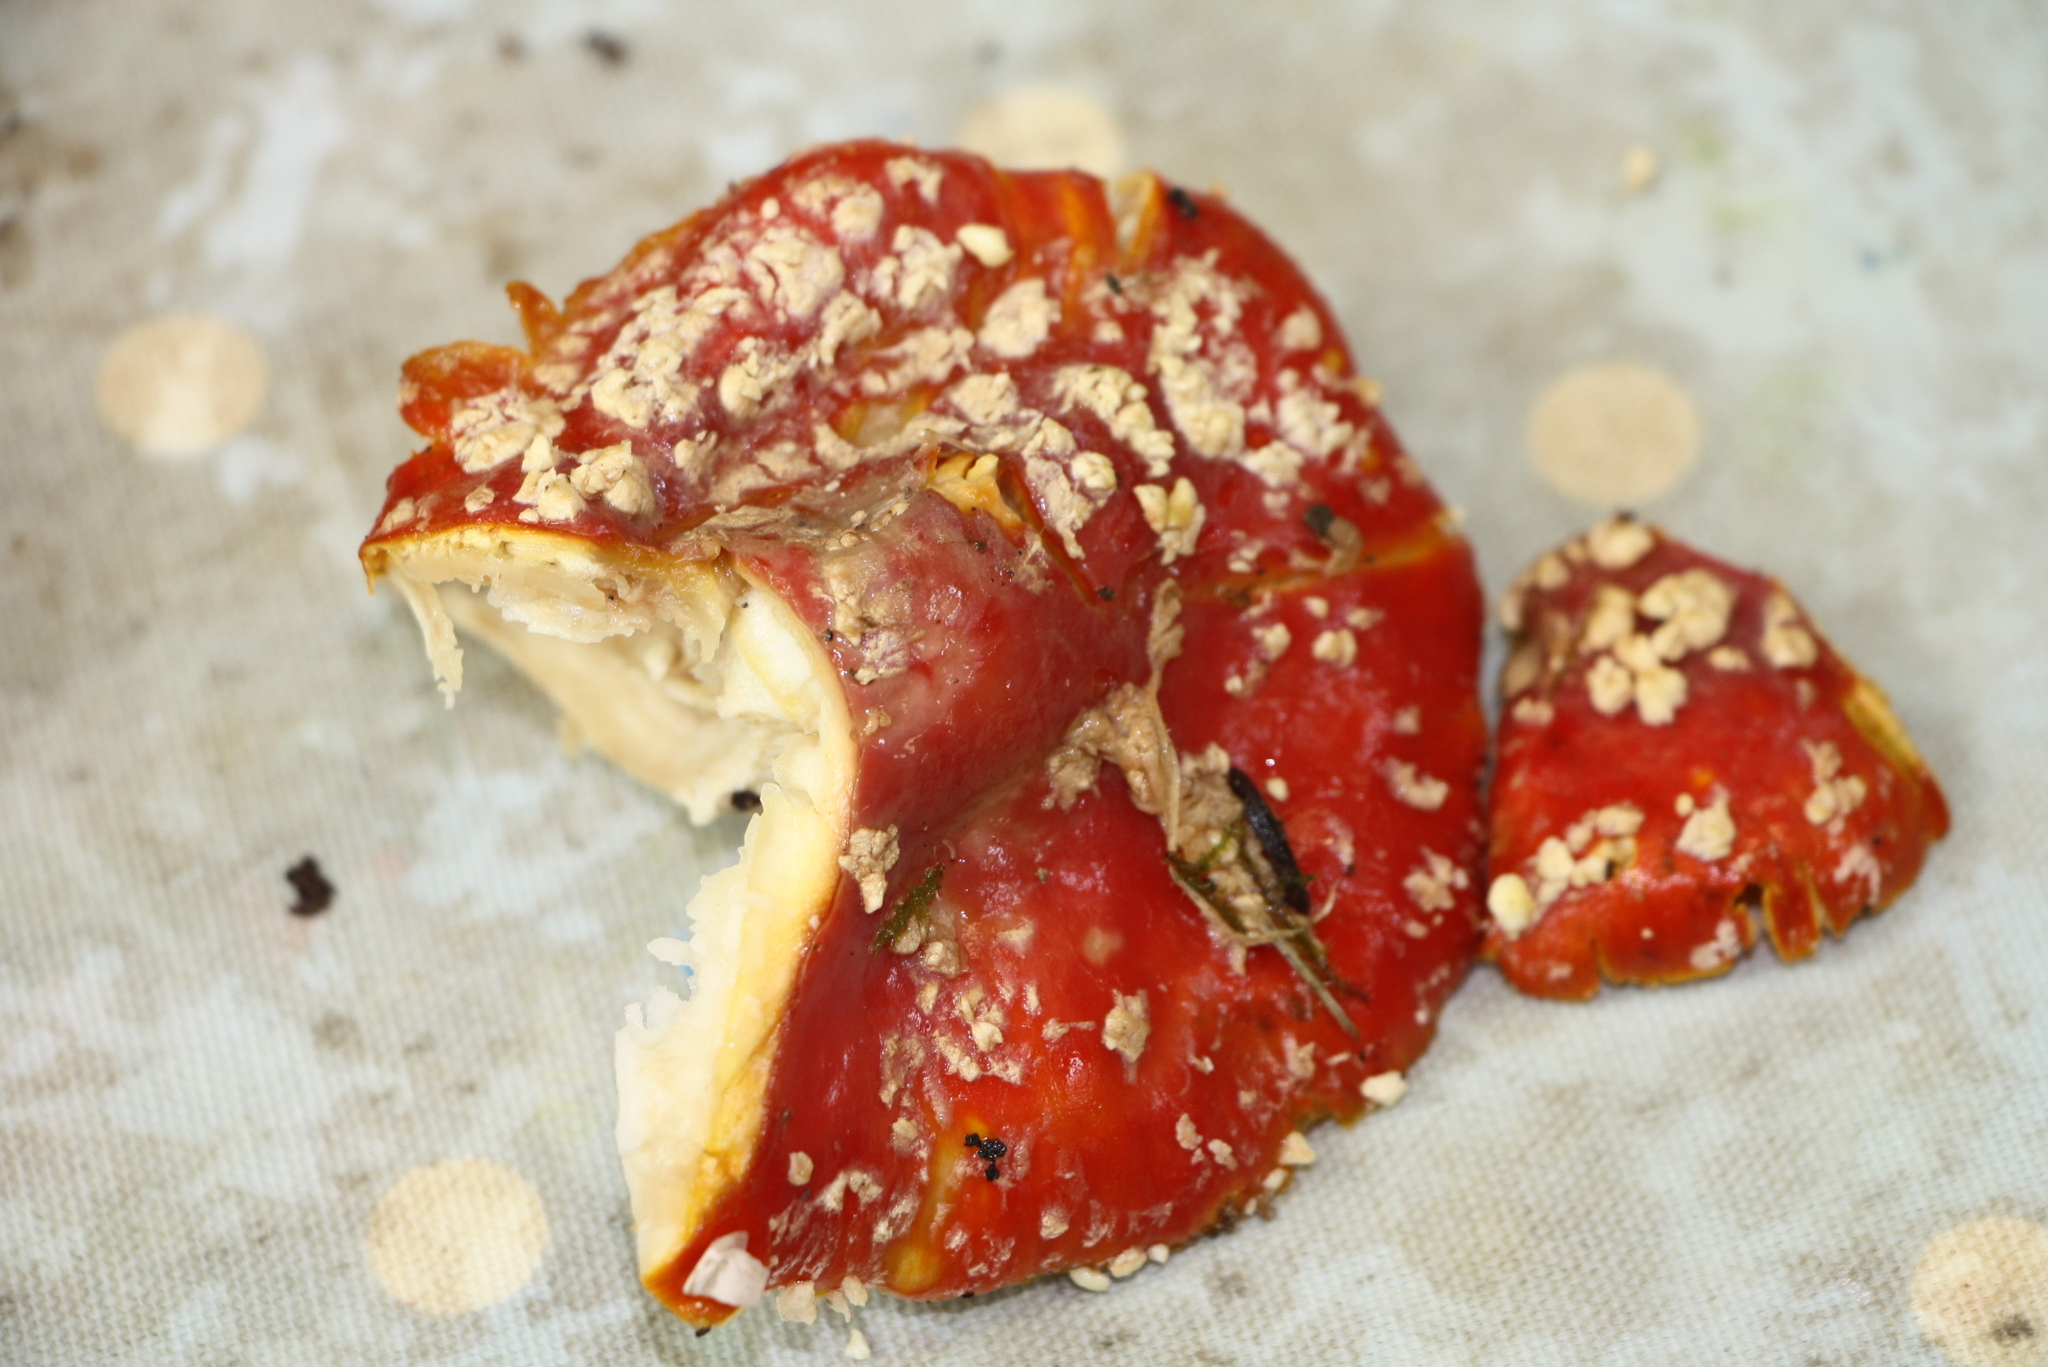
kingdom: Fungi
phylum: Basidiomycota
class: Agaricomycetes
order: Agaricales
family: Amanitaceae
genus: Amanita
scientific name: Amanita muscaria
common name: Fly agaric
